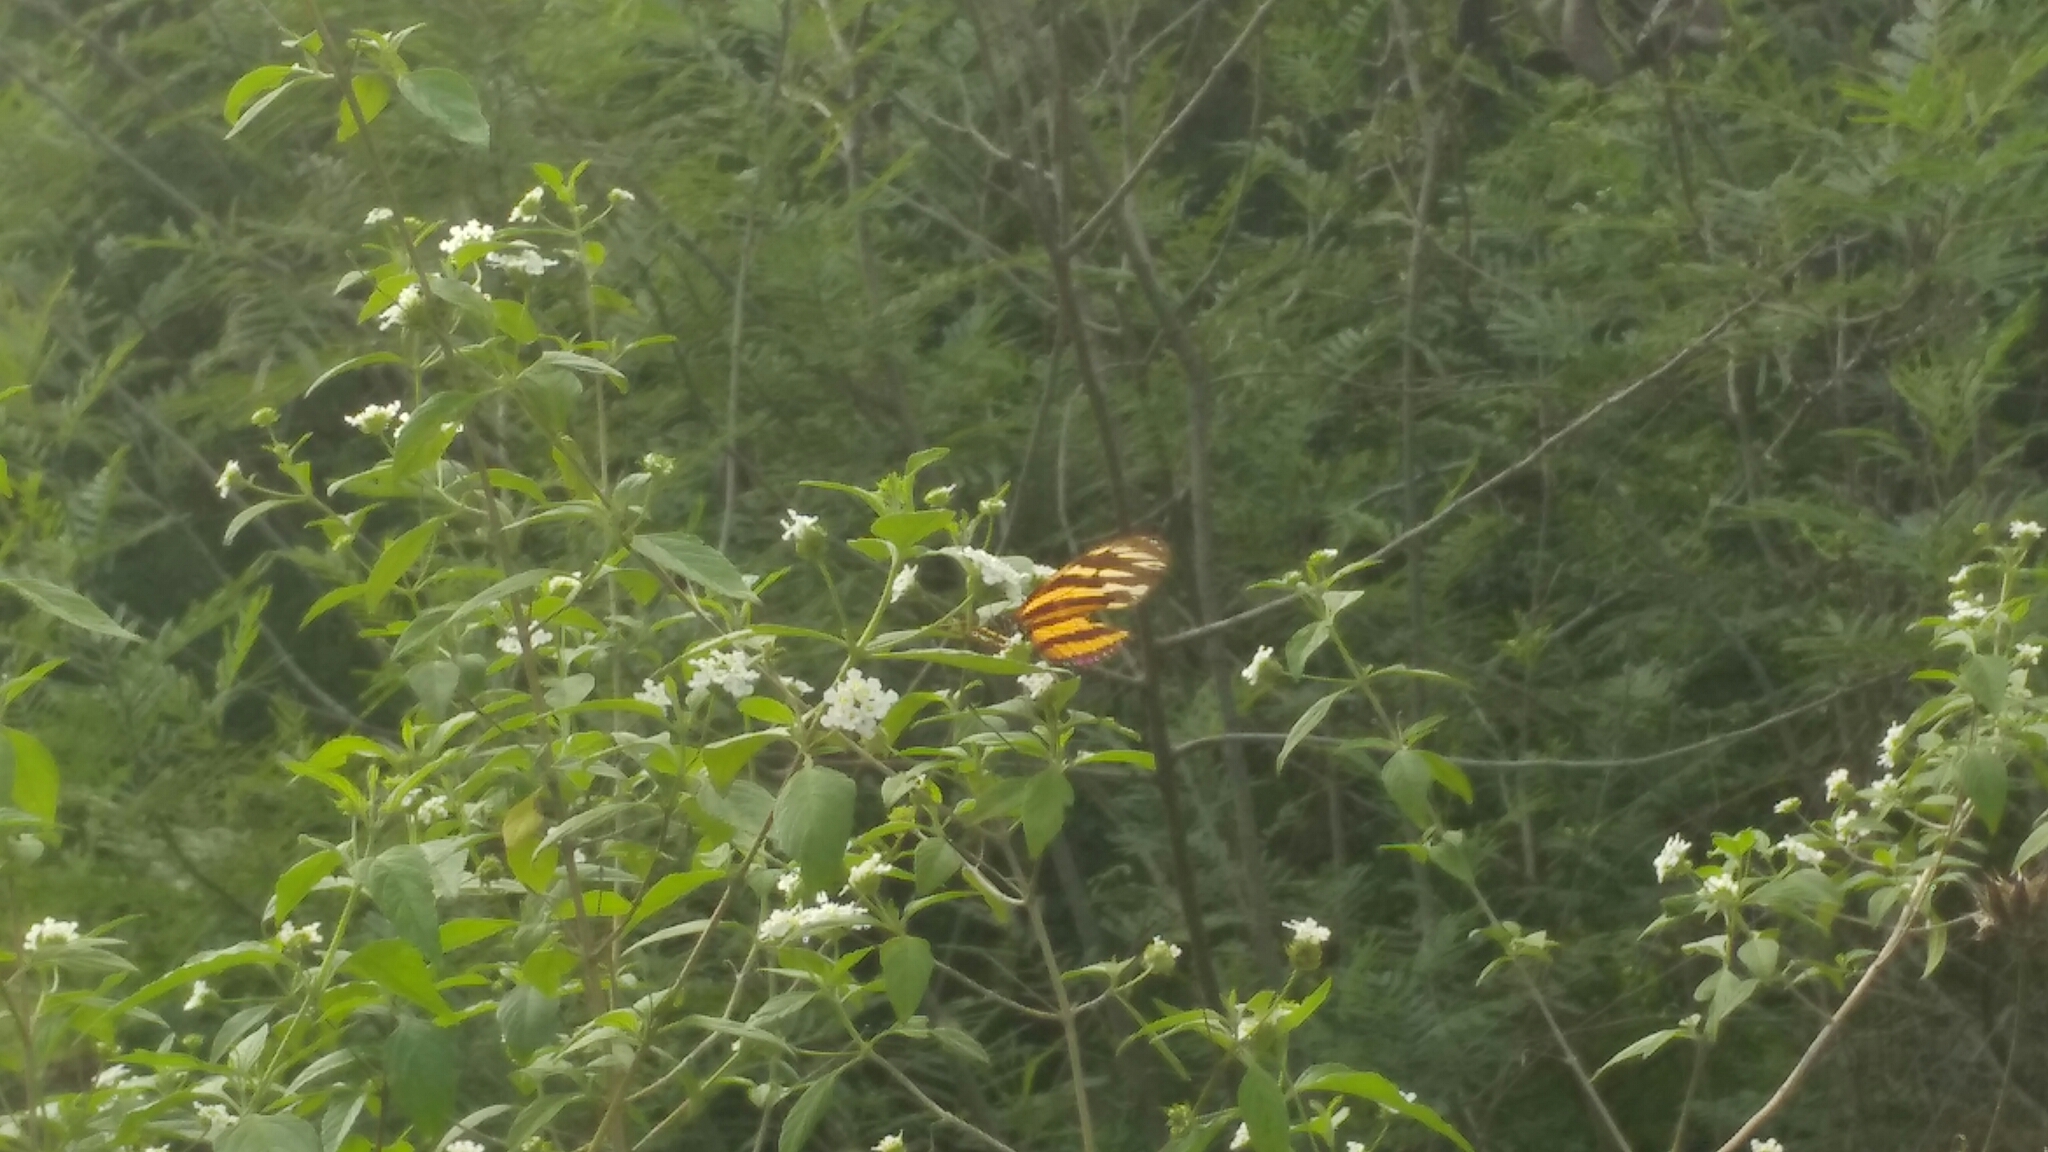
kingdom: Animalia
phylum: Arthropoda
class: Insecta
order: Lepidoptera
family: Nymphalidae
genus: Lycorea
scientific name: Lycorea eva
